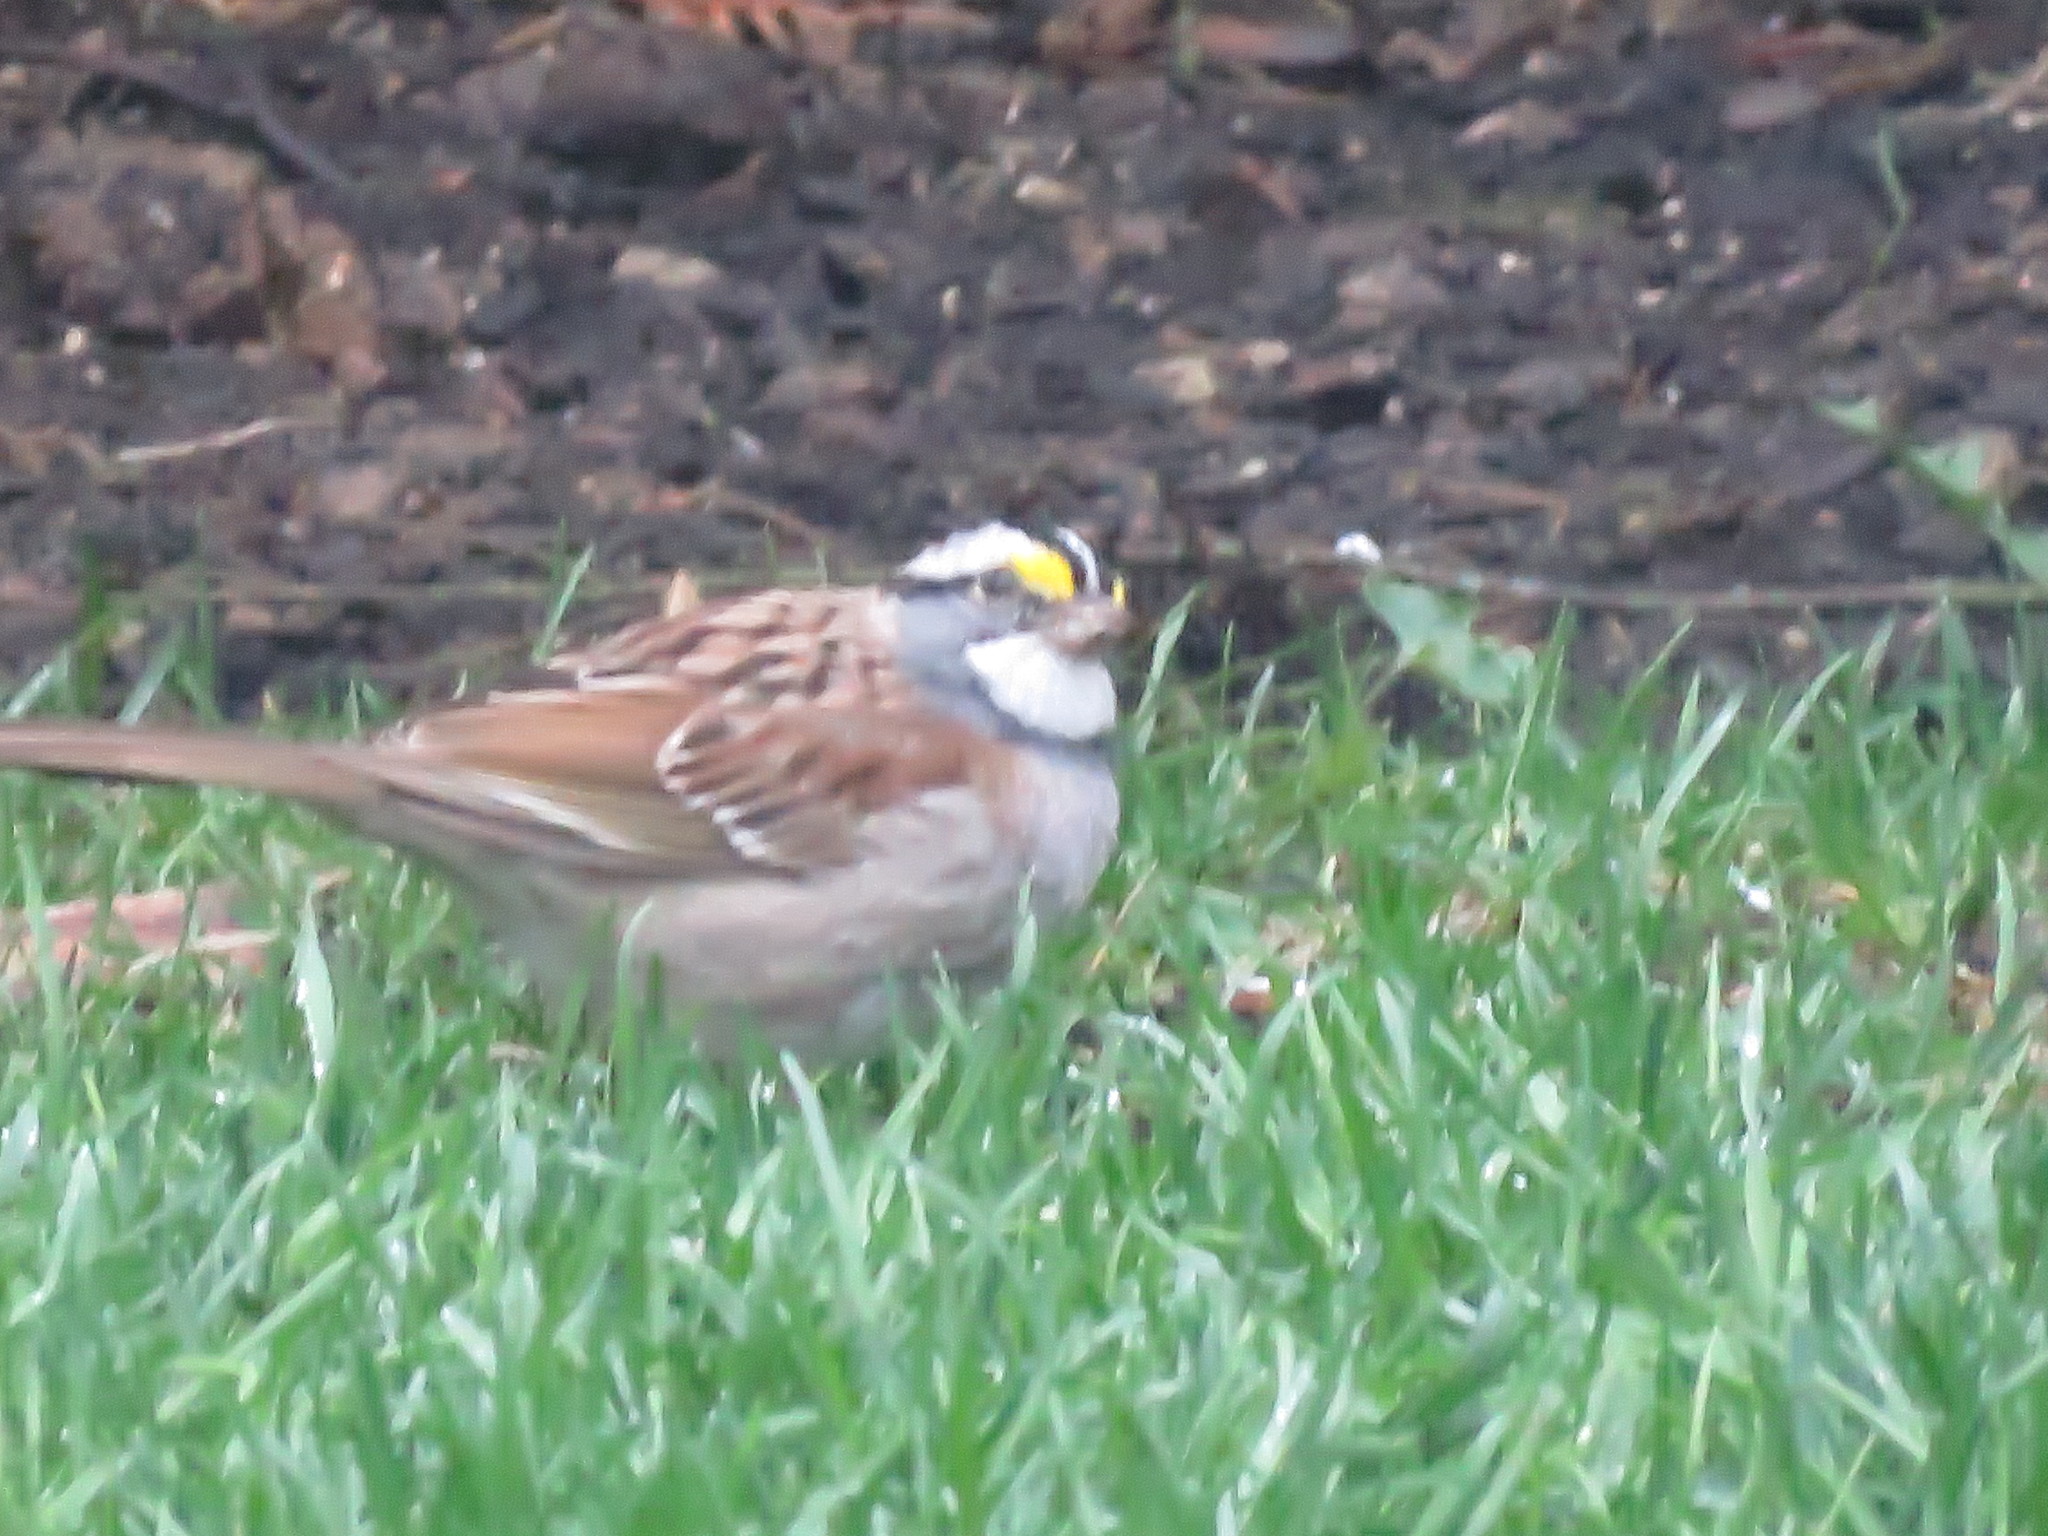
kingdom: Animalia
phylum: Chordata
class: Aves
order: Passeriformes
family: Passerellidae
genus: Zonotrichia
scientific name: Zonotrichia albicollis
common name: White-throated sparrow
